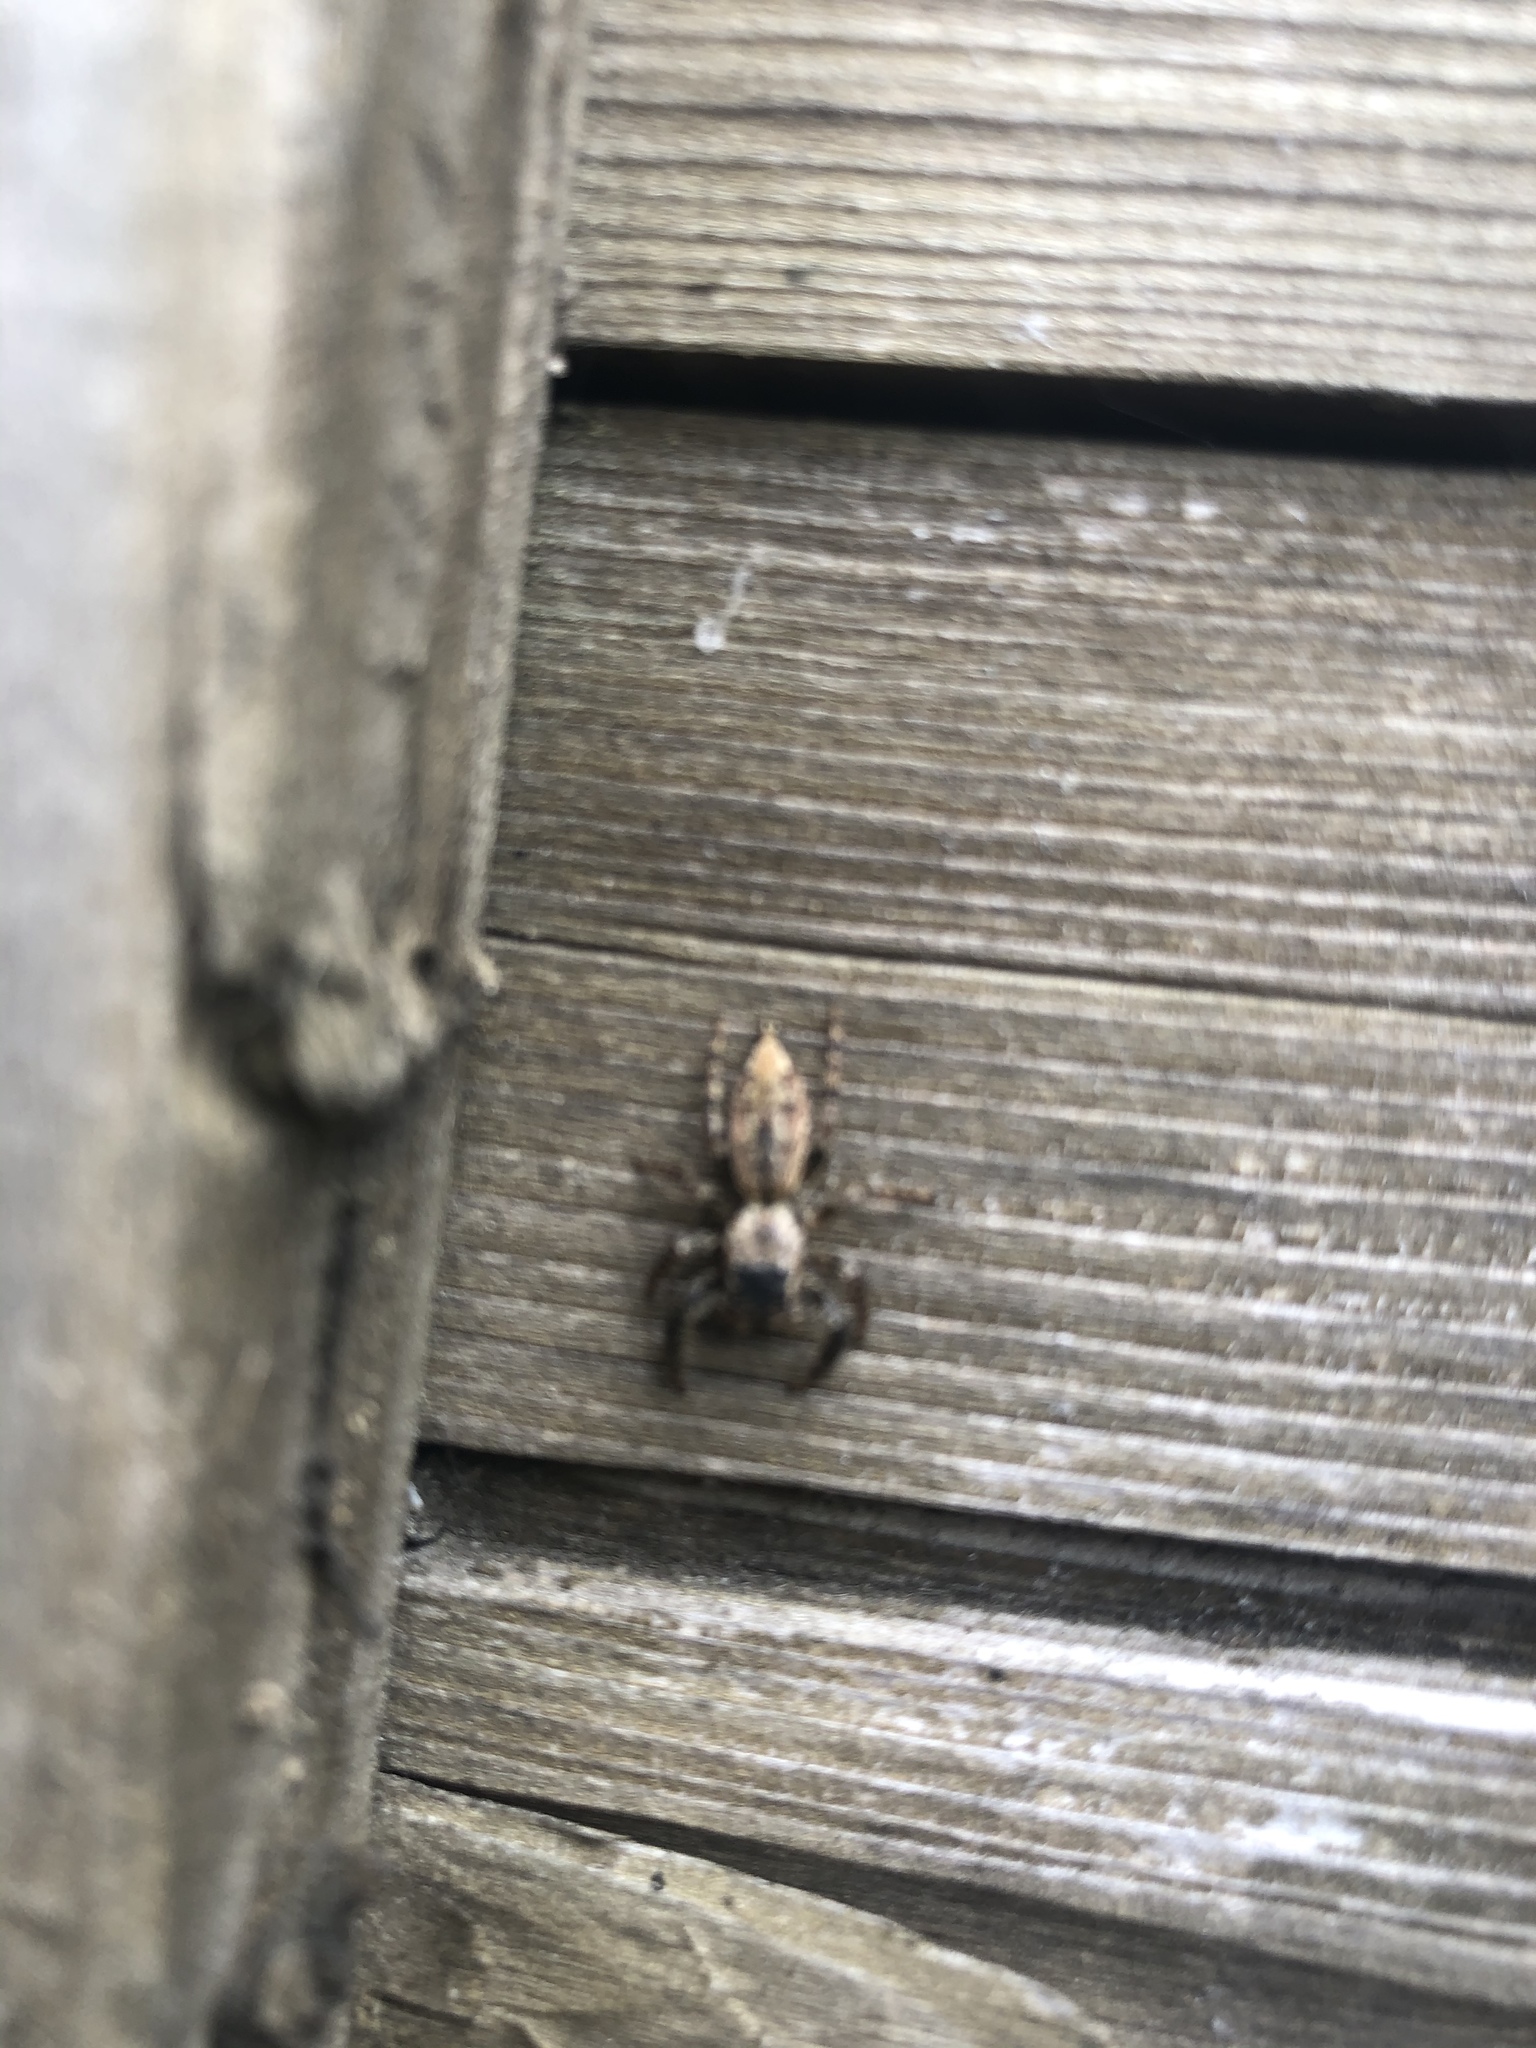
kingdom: Animalia
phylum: Arthropoda
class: Arachnida
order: Araneae
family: Salticidae
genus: Marpissa
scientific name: Marpissa muscosa
